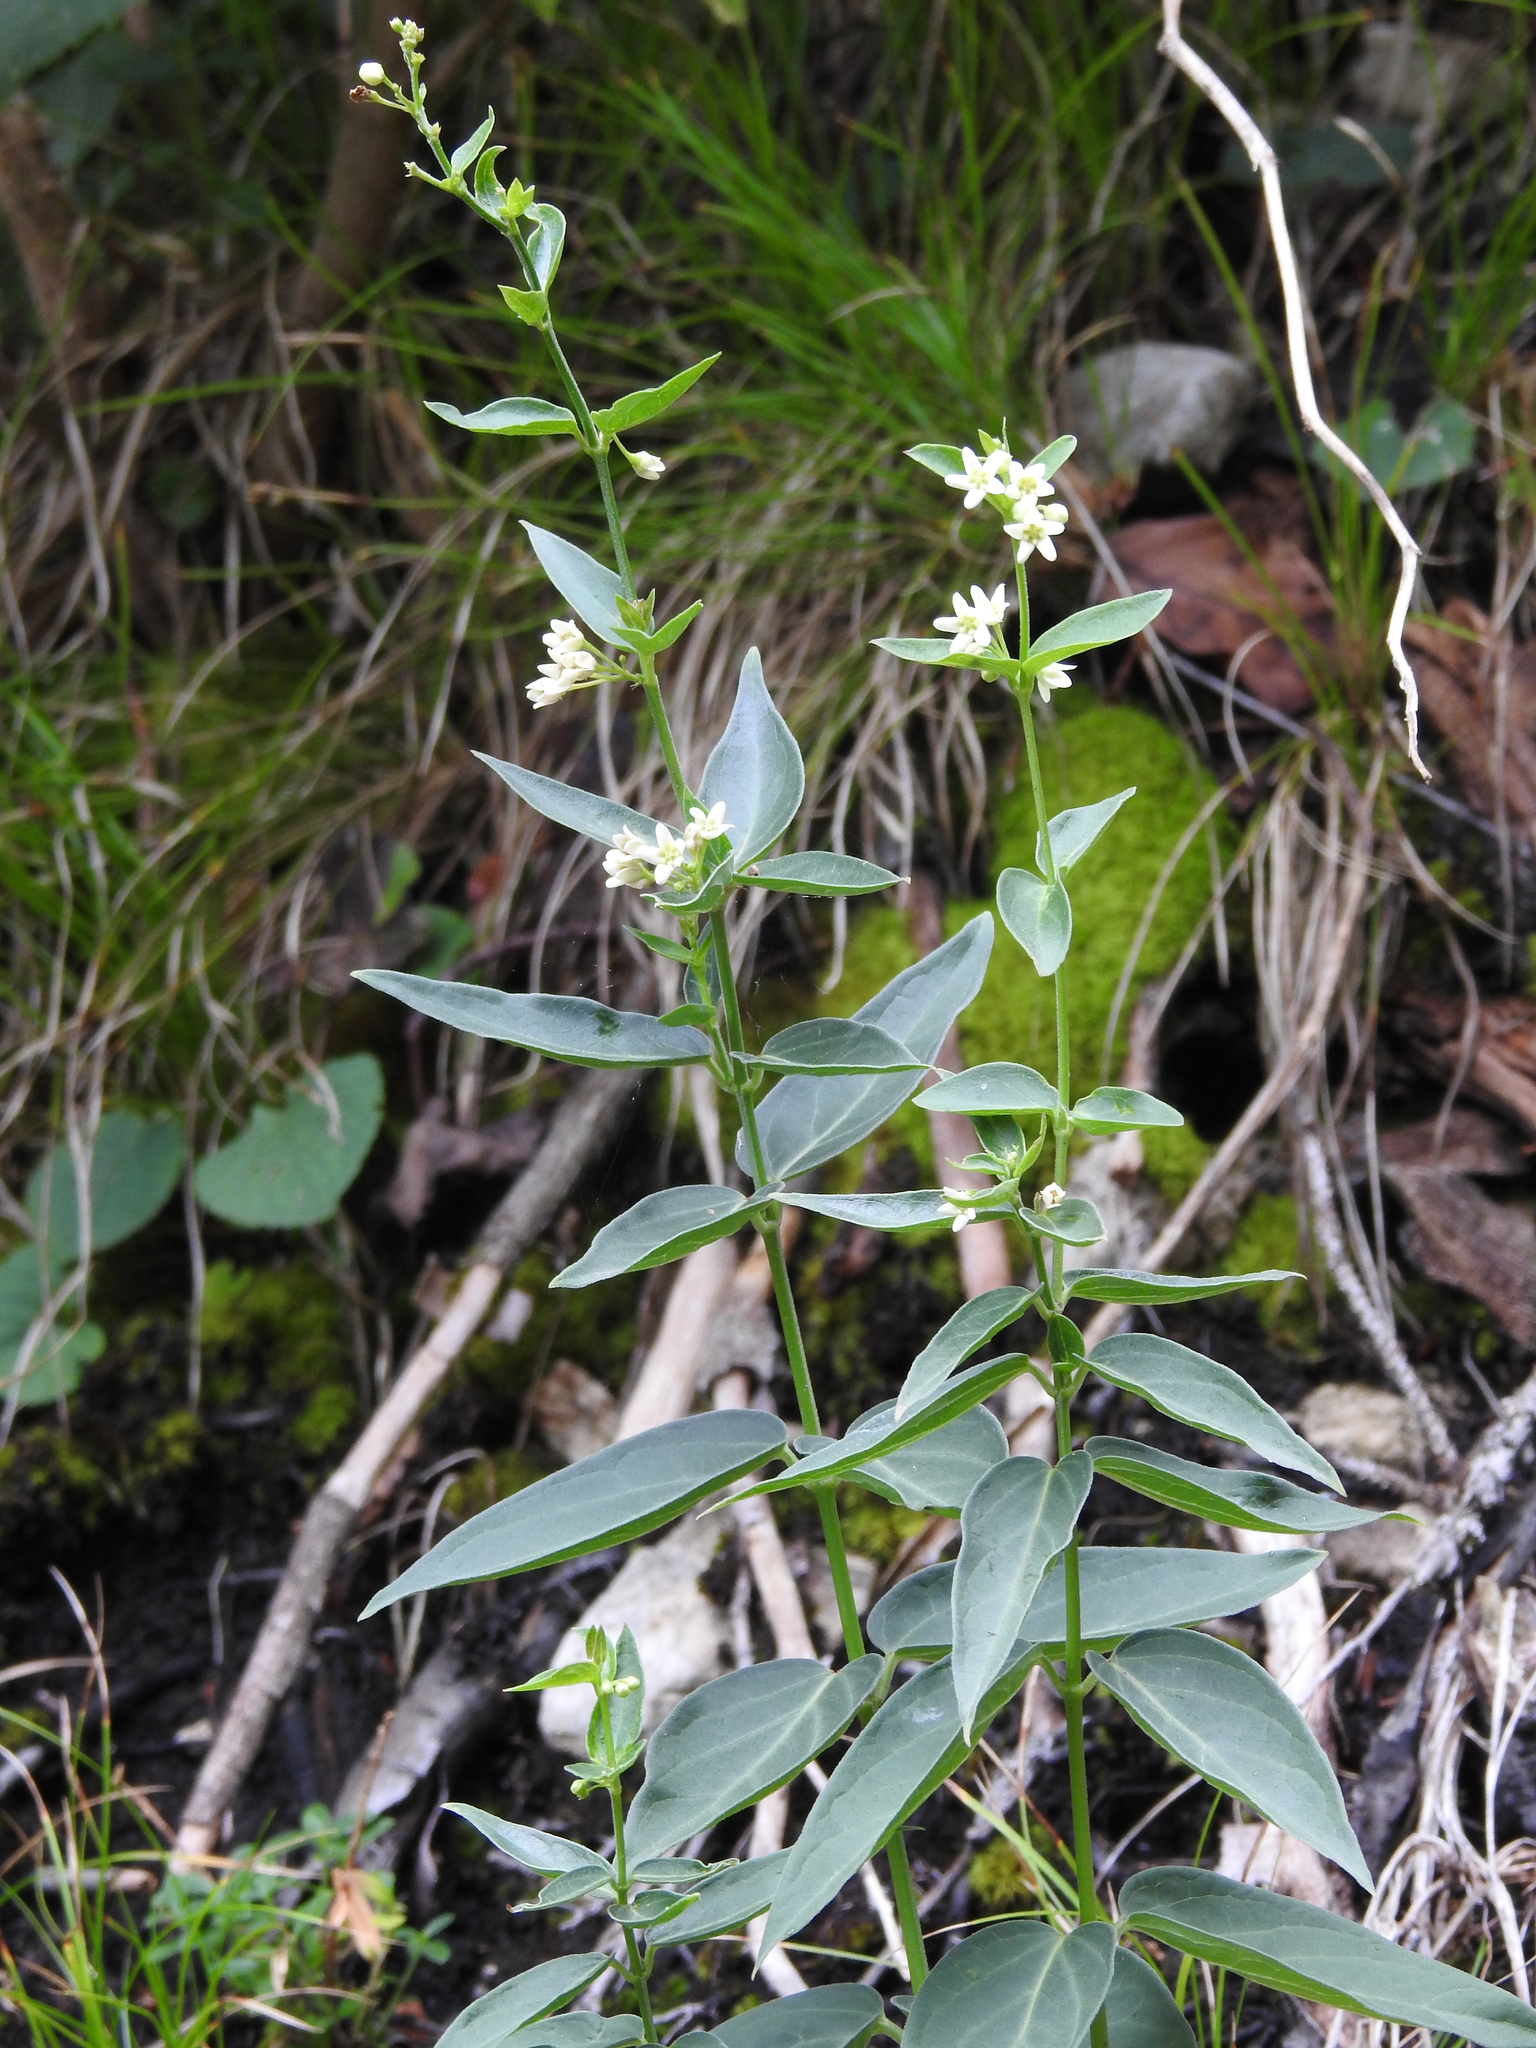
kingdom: Plantae
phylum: Tracheophyta
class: Magnoliopsida
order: Gentianales
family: Apocynaceae
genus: Vincetoxicum
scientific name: Vincetoxicum hirundinaria
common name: White swallowwort
